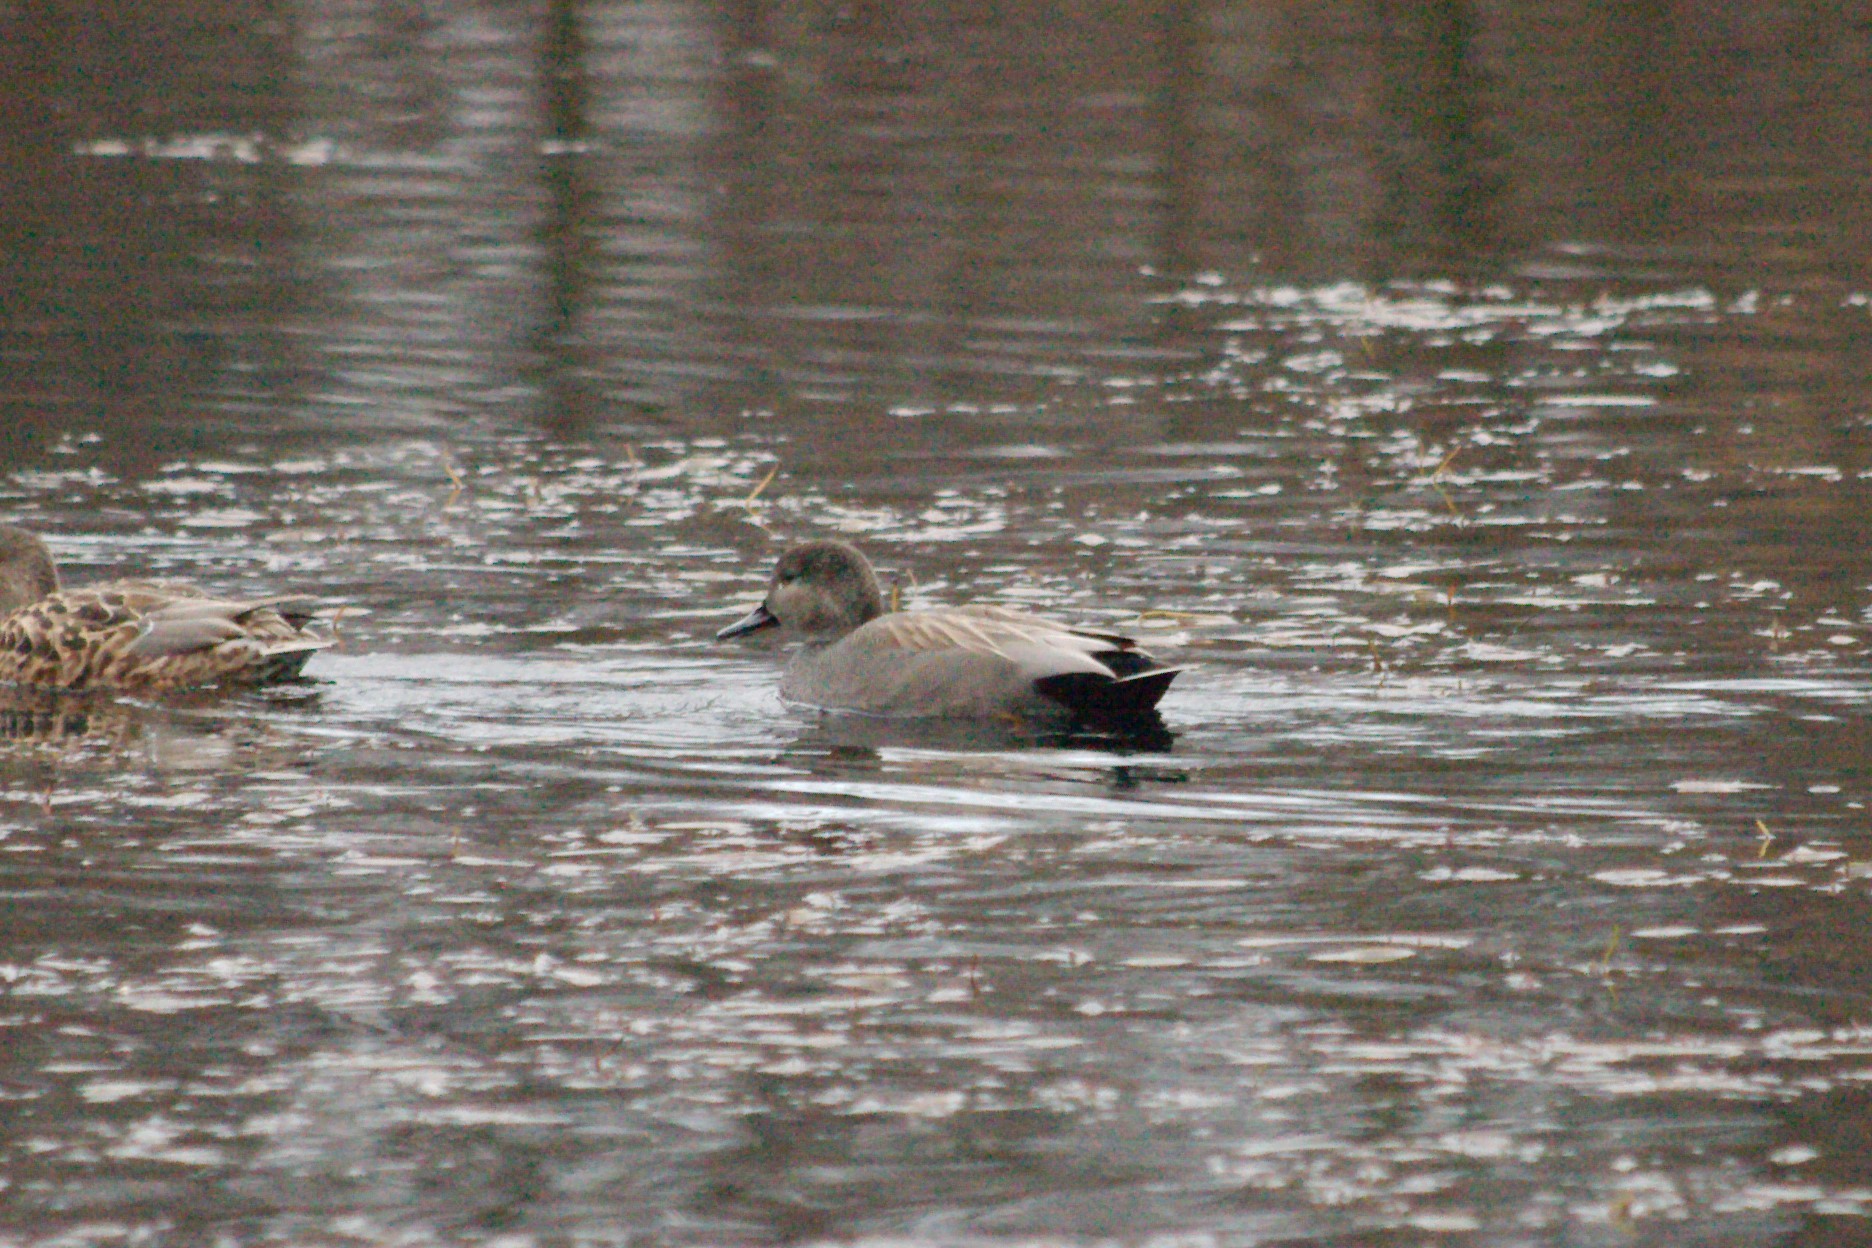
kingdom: Animalia
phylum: Chordata
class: Aves
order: Anseriformes
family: Anatidae
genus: Mareca
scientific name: Mareca strepera
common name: Gadwall
